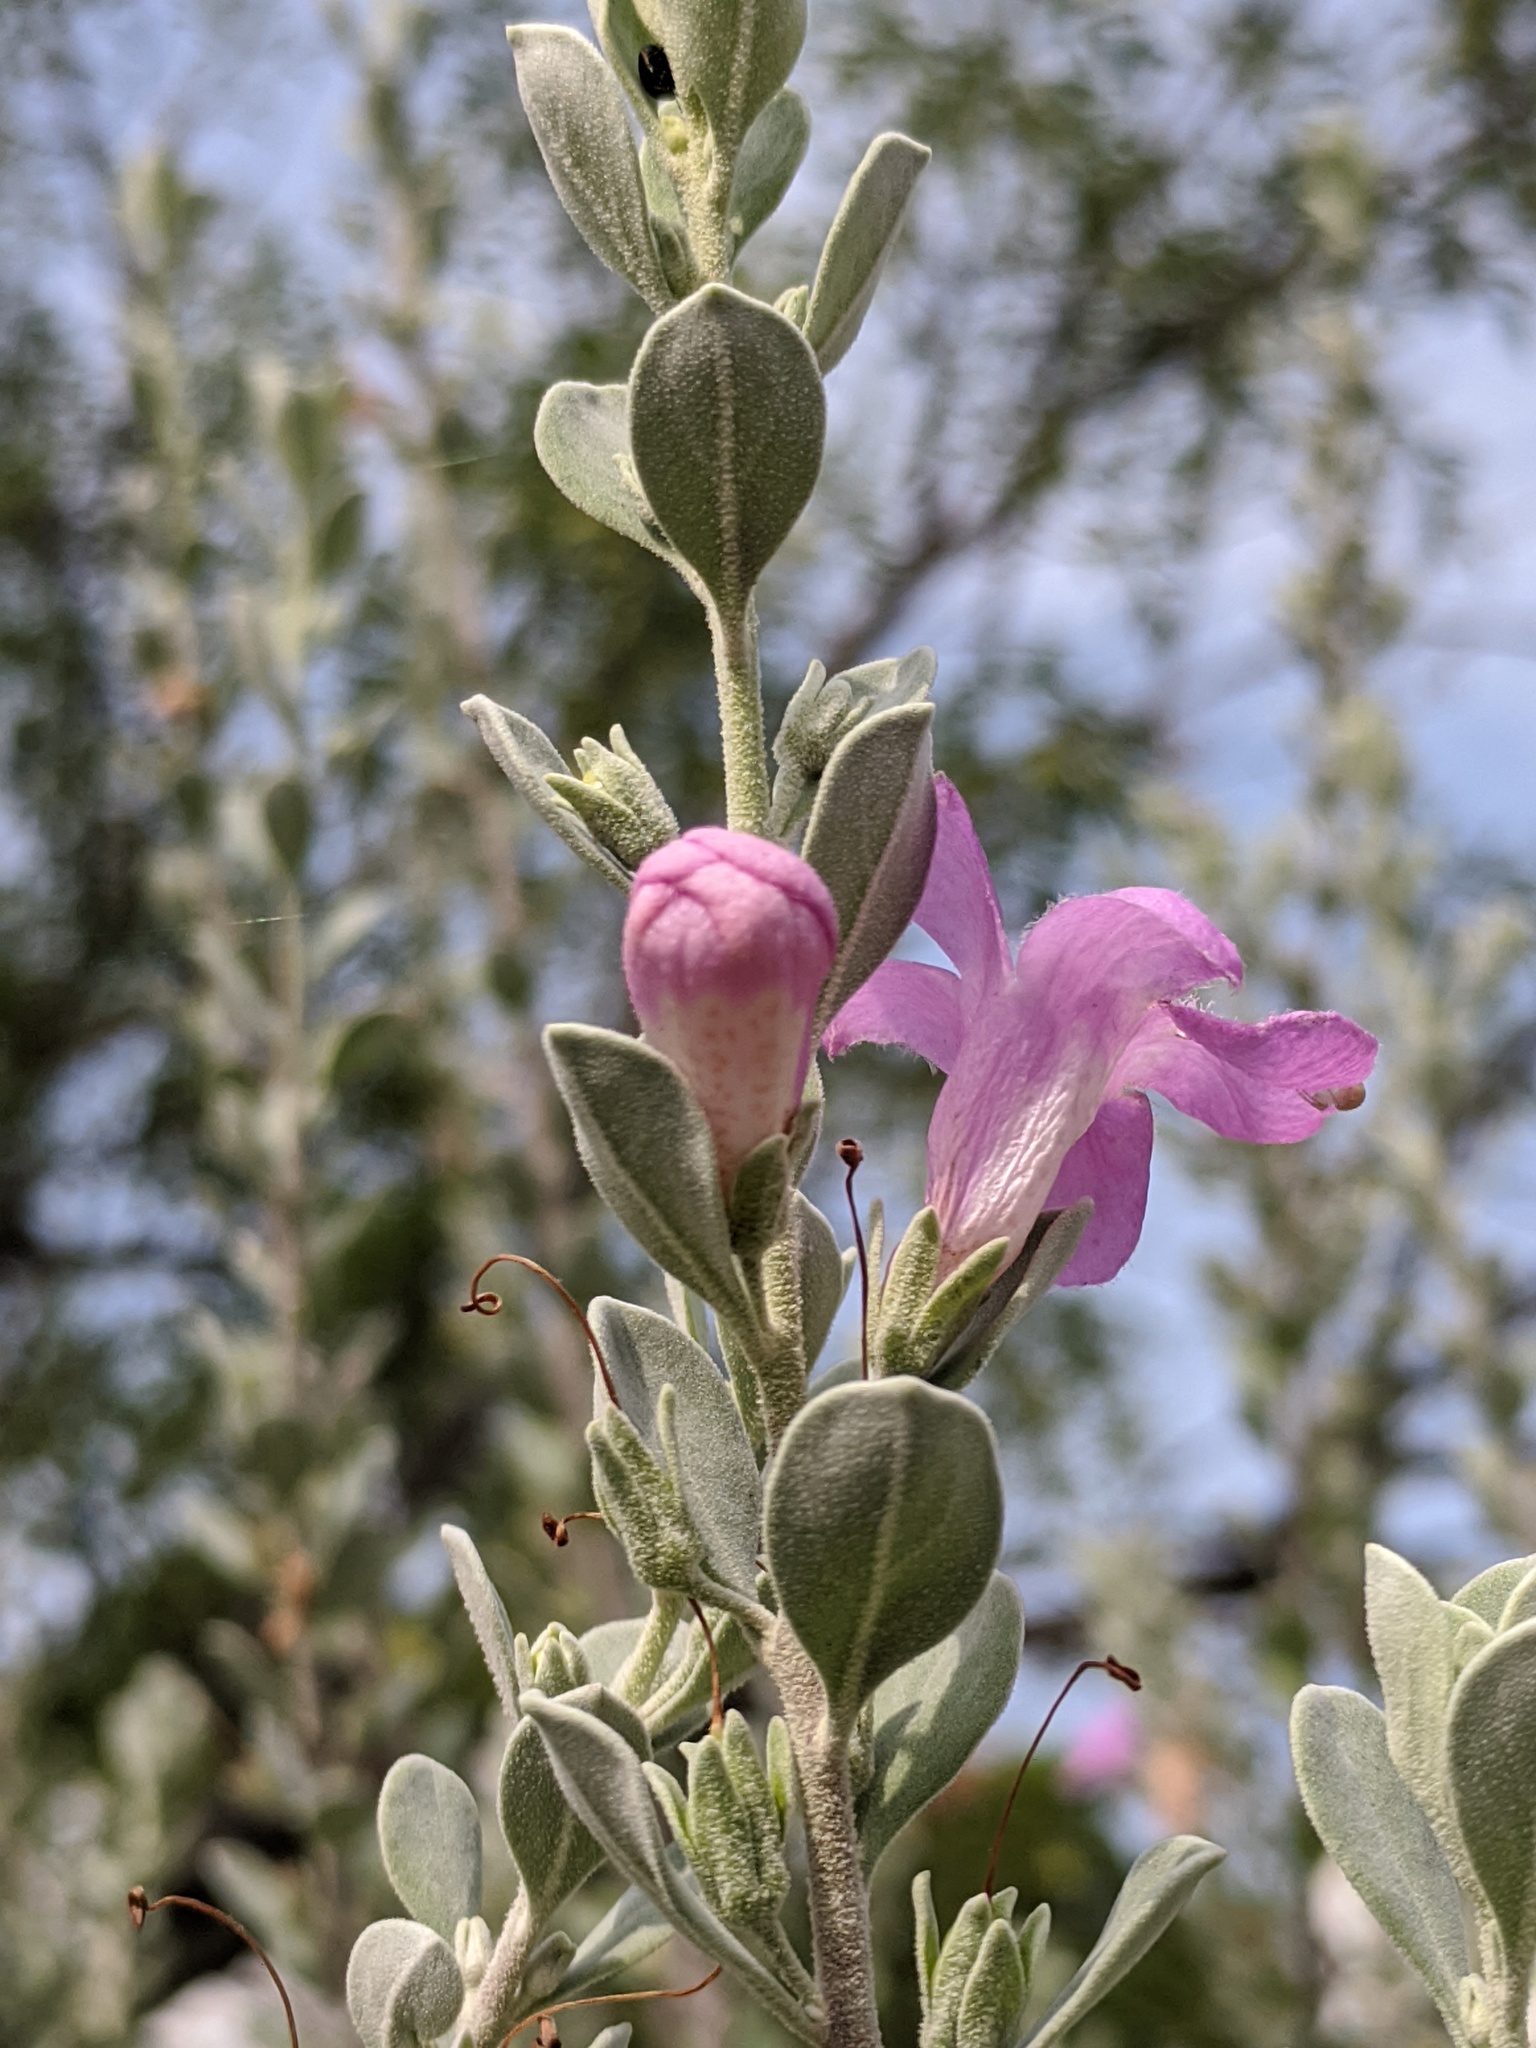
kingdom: Plantae
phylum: Tracheophyta
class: Magnoliopsida
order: Lamiales
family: Scrophulariaceae
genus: Leucophyllum
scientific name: Leucophyllum frutescens
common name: Texas silverleaf
